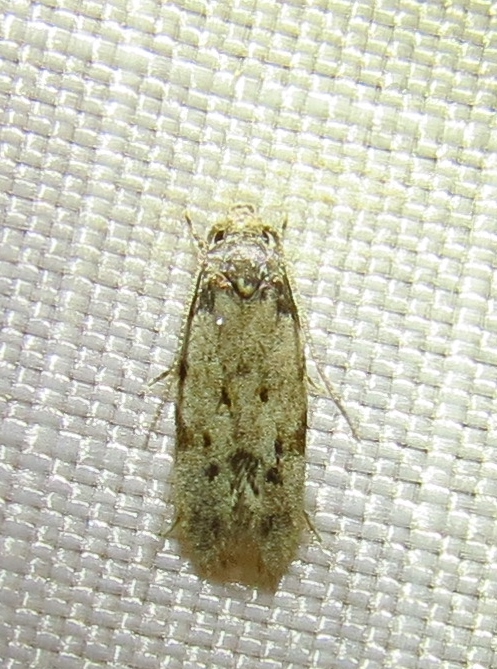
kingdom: Animalia
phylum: Arthropoda
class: Insecta
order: Lepidoptera
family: Autostichidae
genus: Taygete
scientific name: Taygete attributella
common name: Triangle-marked twirler moth
